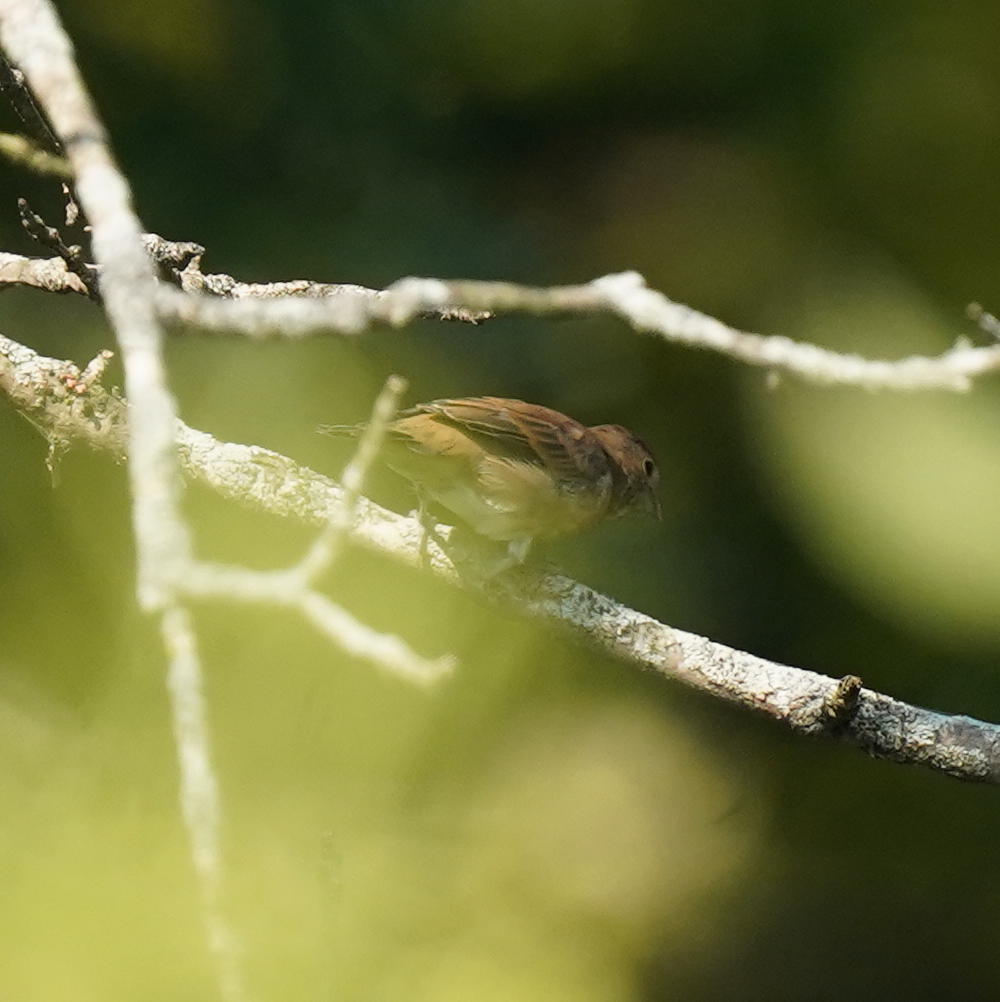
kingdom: Animalia
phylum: Chordata
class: Aves
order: Passeriformes
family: Cardinalidae
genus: Passerina
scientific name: Passerina cyanea
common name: Indigo bunting
